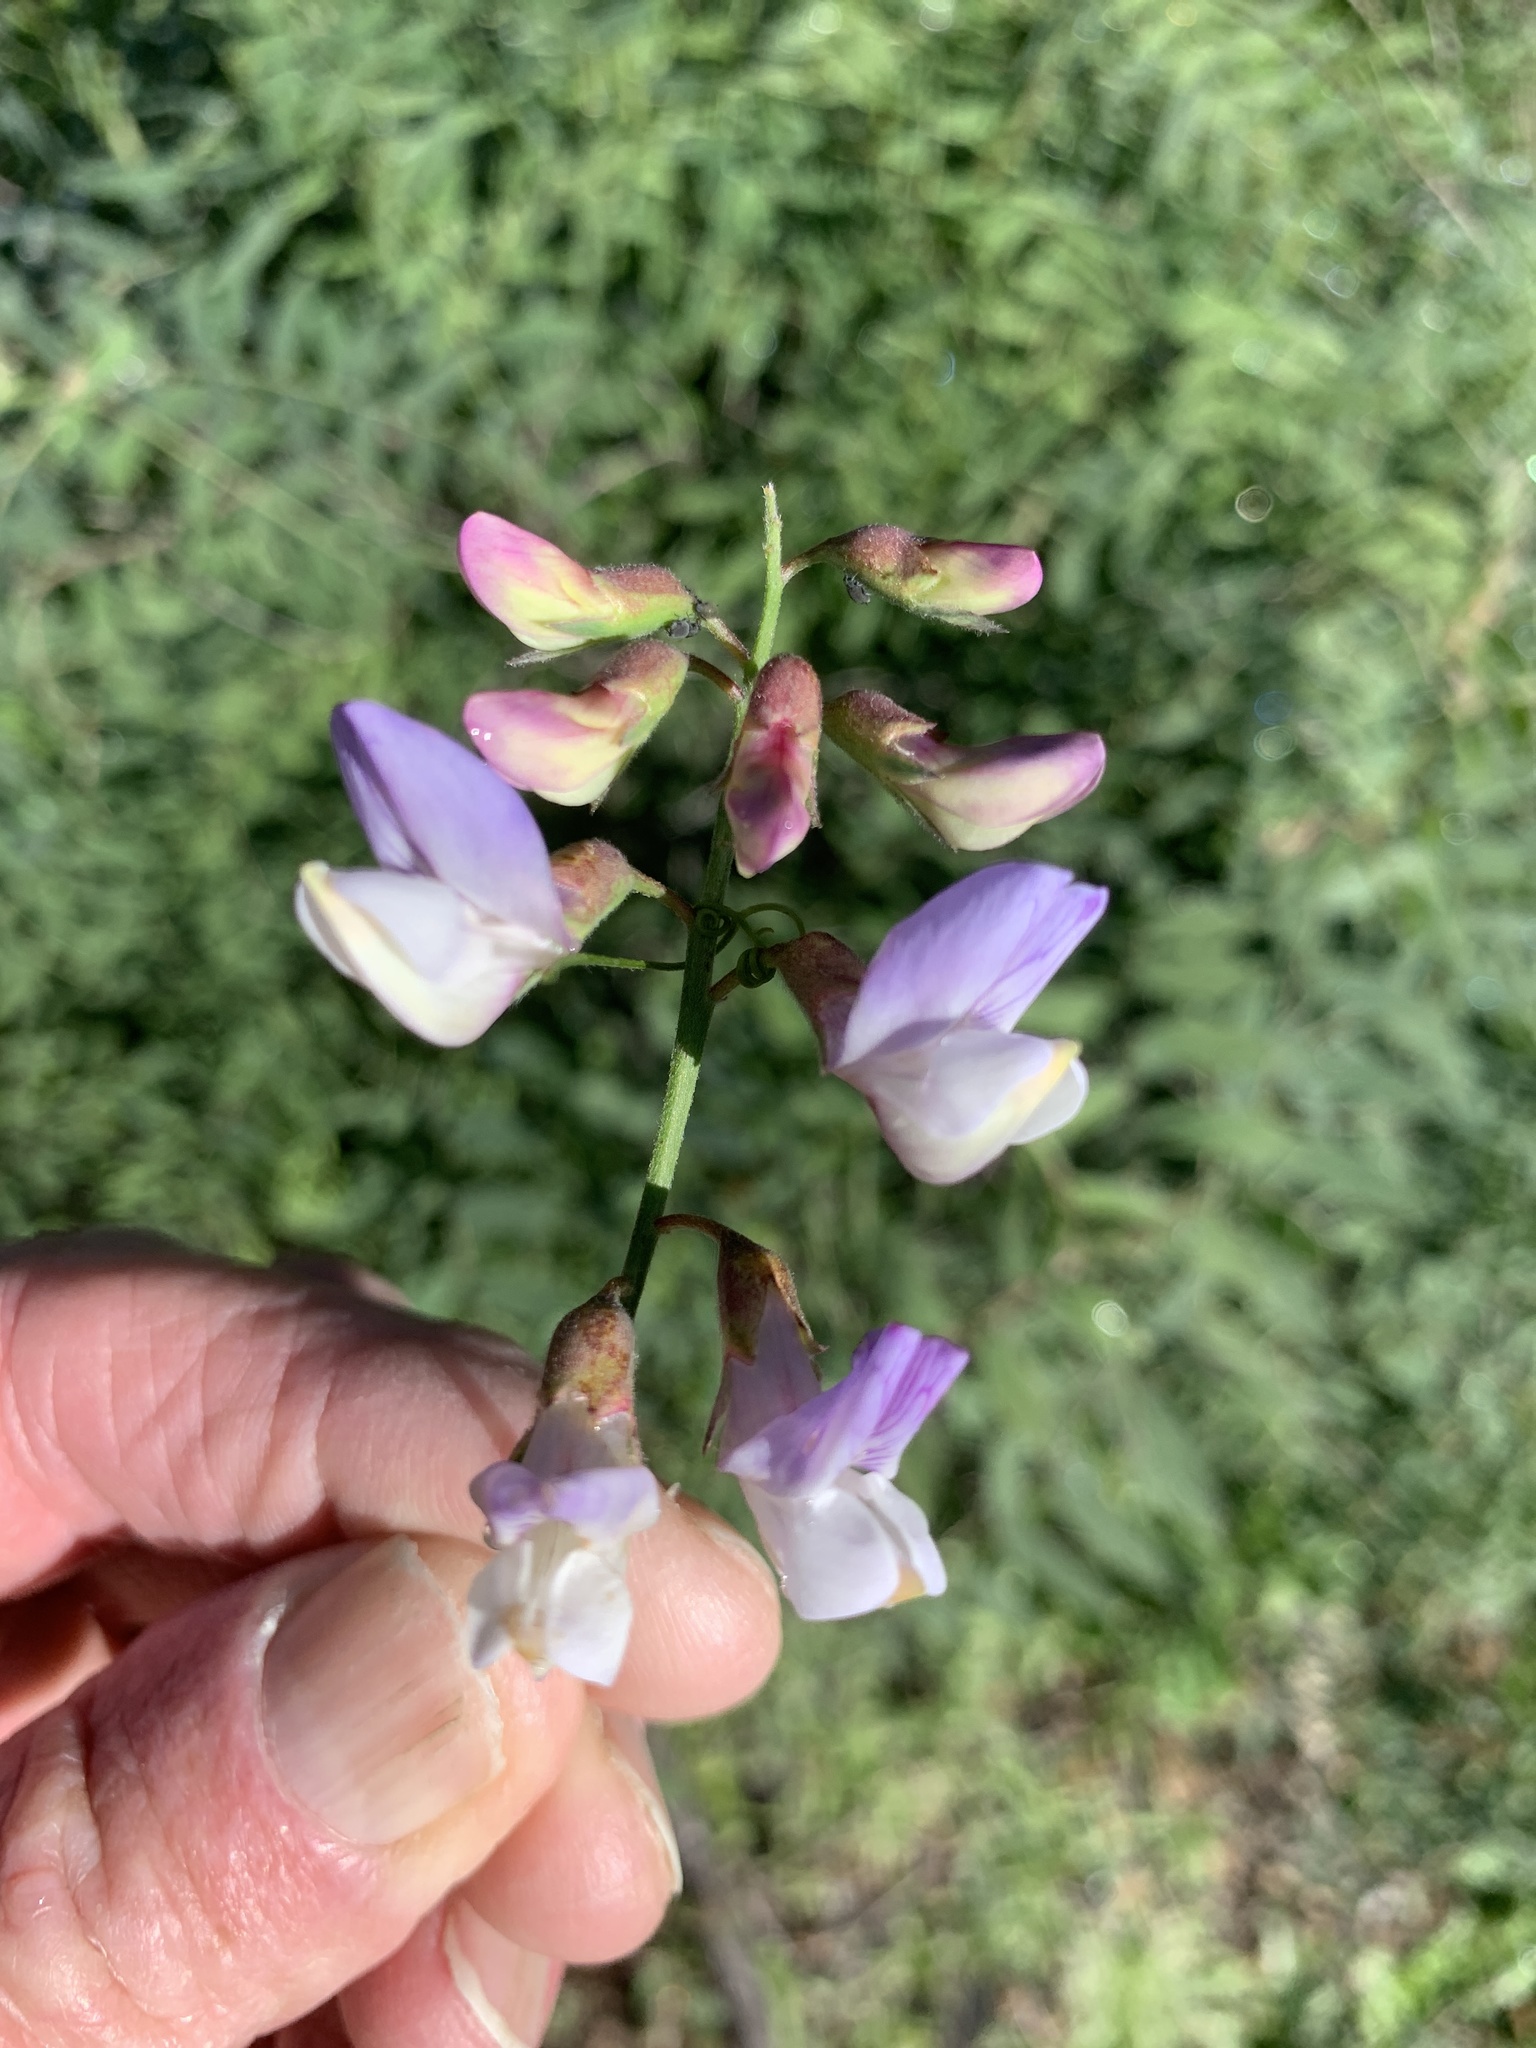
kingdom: Plantae
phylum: Tracheophyta
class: Magnoliopsida
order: Fabales
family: Fabaceae
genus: Lathyrus
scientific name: Lathyrus vestitus
